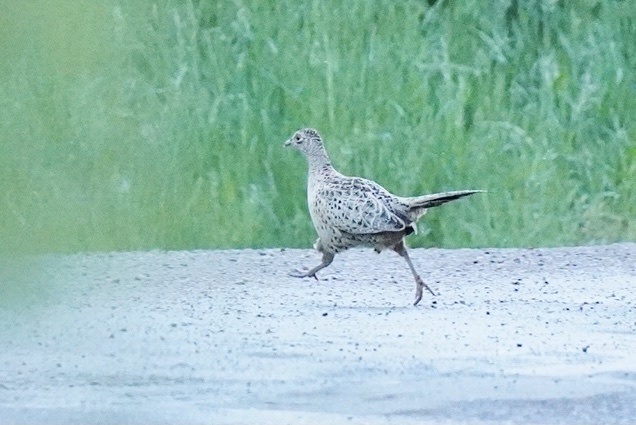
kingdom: Animalia
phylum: Chordata
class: Aves
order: Galliformes
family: Phasianidae
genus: Phasianus
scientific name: Phasianus colchicus
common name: Common pheasant
